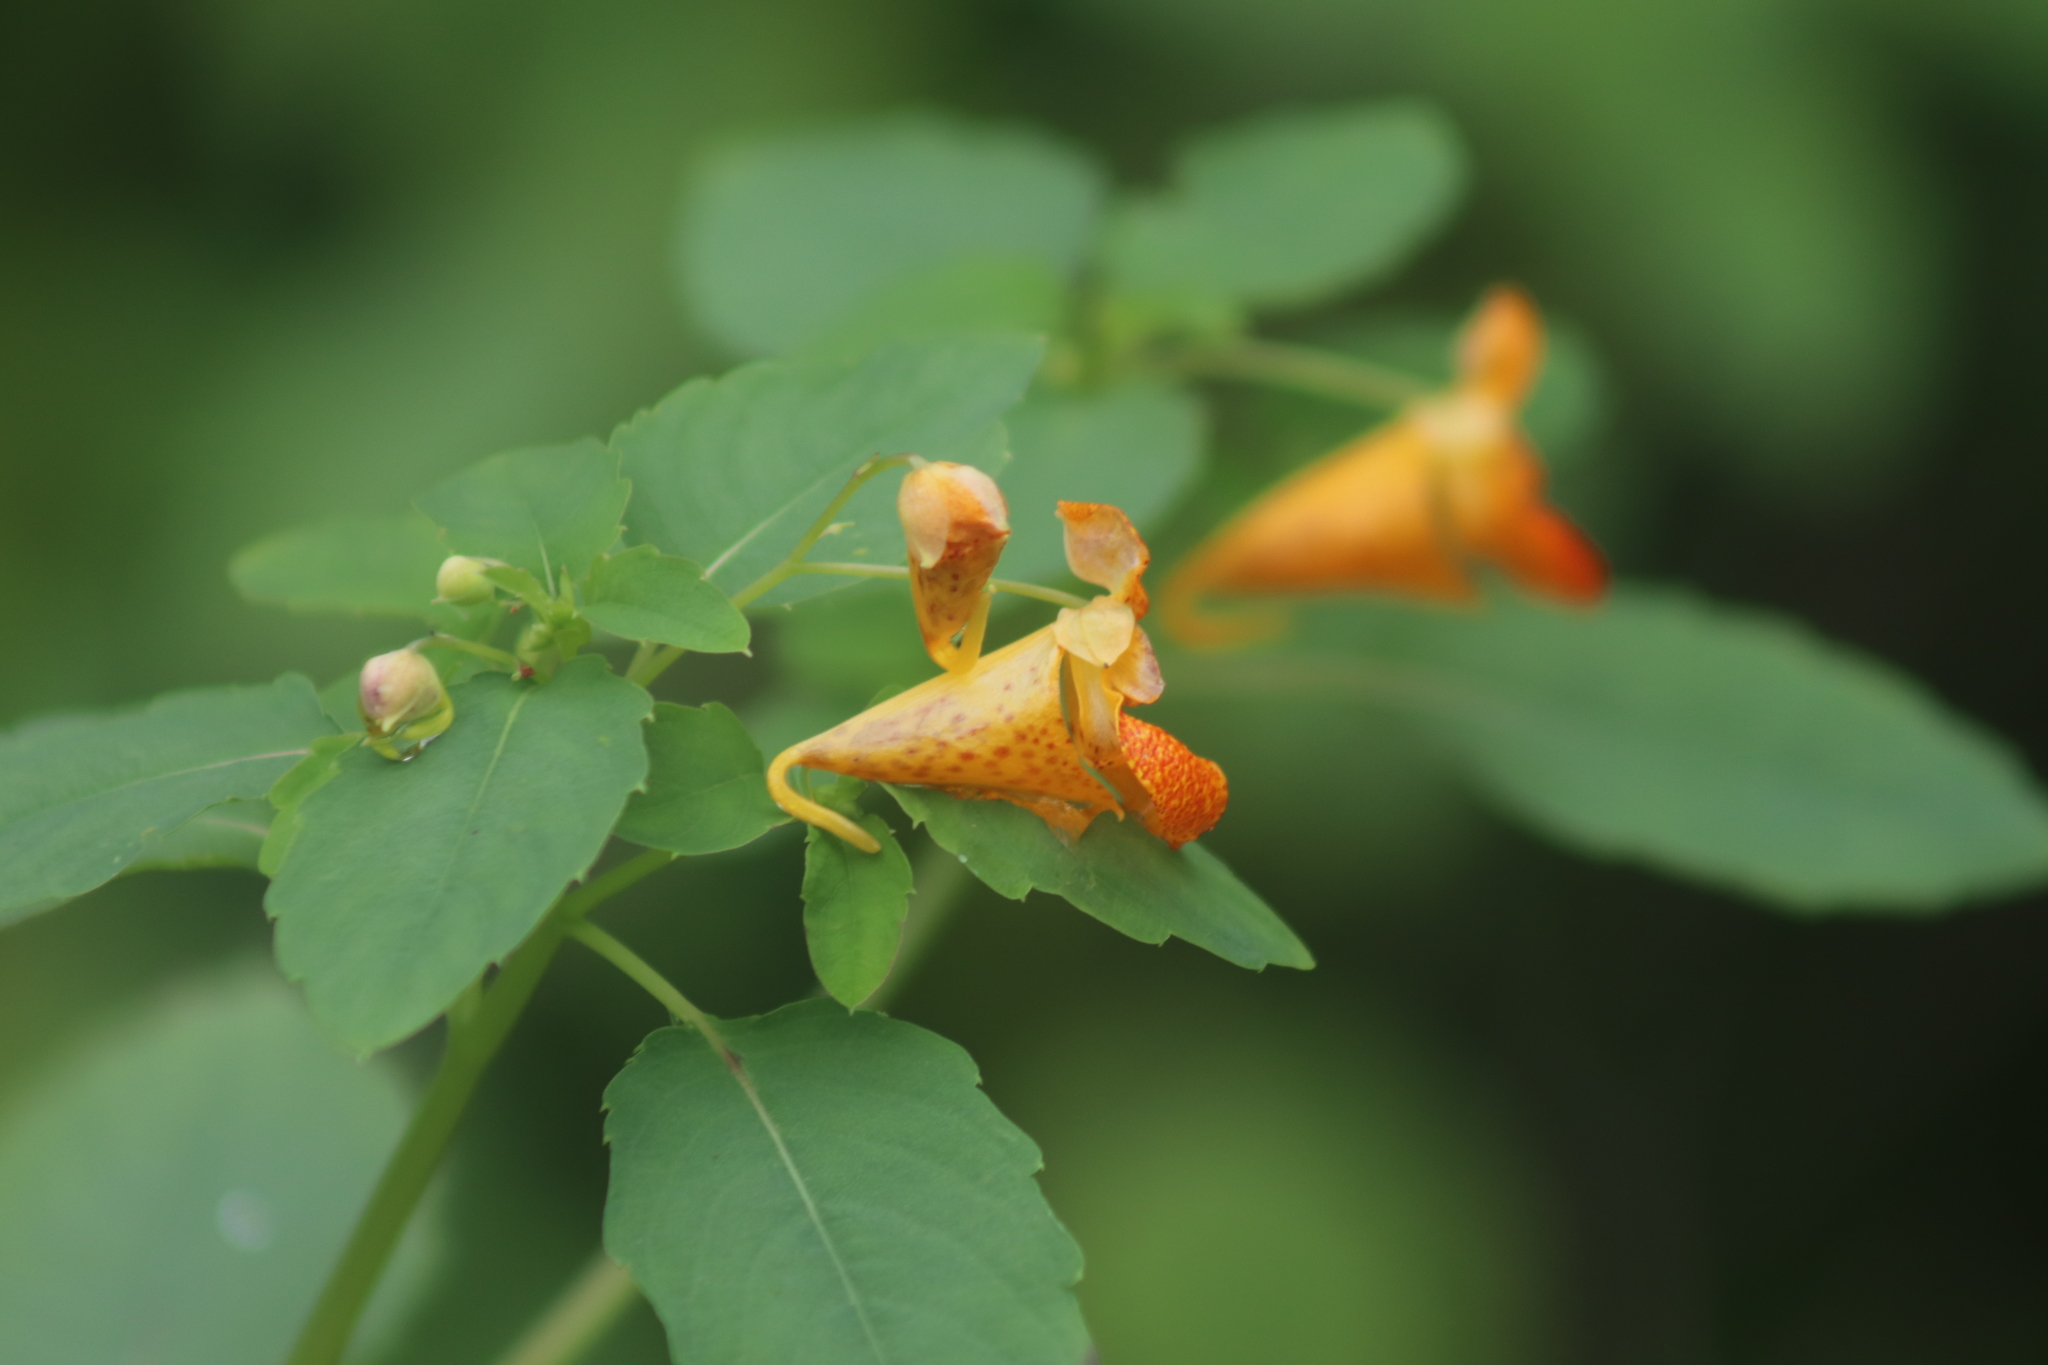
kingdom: Plantae
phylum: Tracheophyta
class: Magnoliopsida
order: Ericales
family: Balsaminaceae
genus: Impatiens
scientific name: Impatiens capensis
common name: Orange balsam
